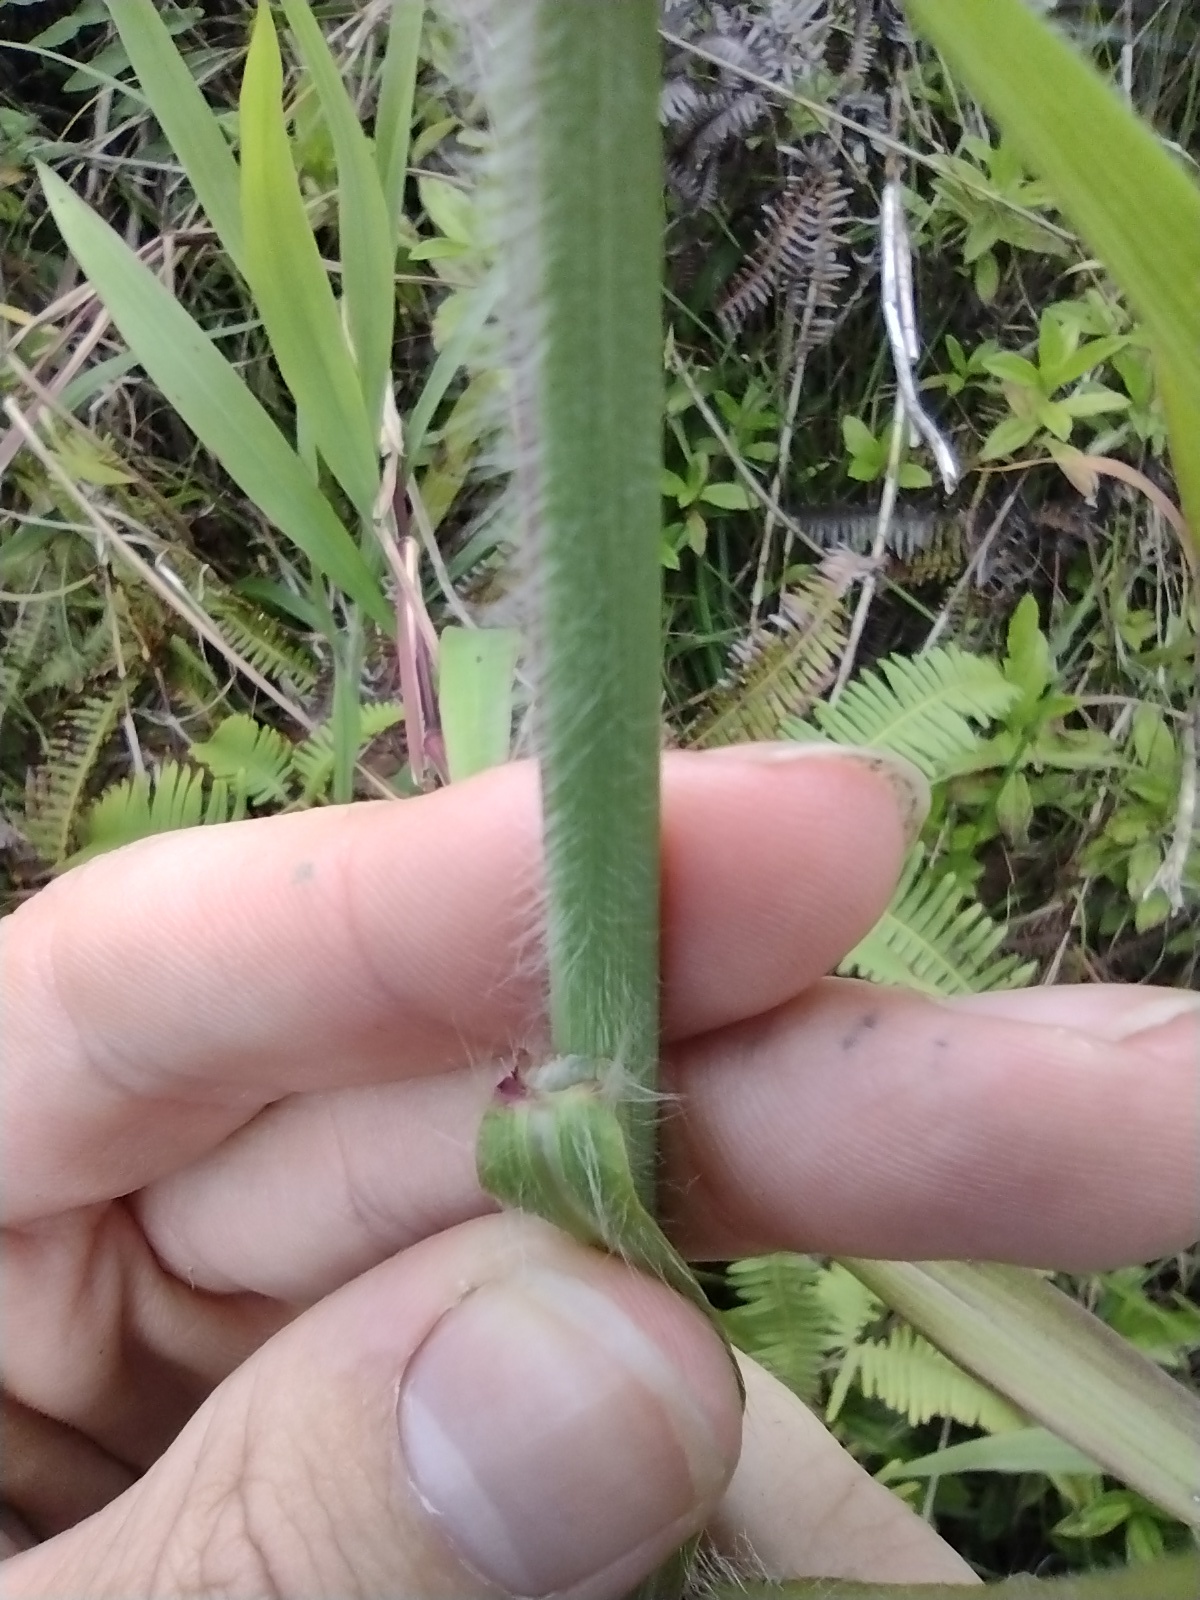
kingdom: Plantae
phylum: Tracheophyta
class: Liliopsida
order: Poales
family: Poaceae
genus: Urochloa
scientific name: Urochloa mutica
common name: Para grass
